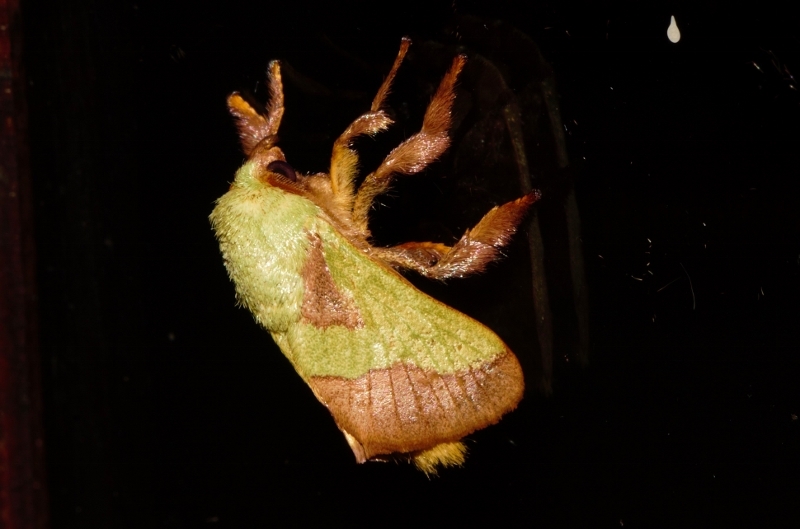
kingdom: Animalia
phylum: Arthropoda
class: Insecta
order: Lepidoptera
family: Limacodidae
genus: Parasa
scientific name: Parasa latistriga
